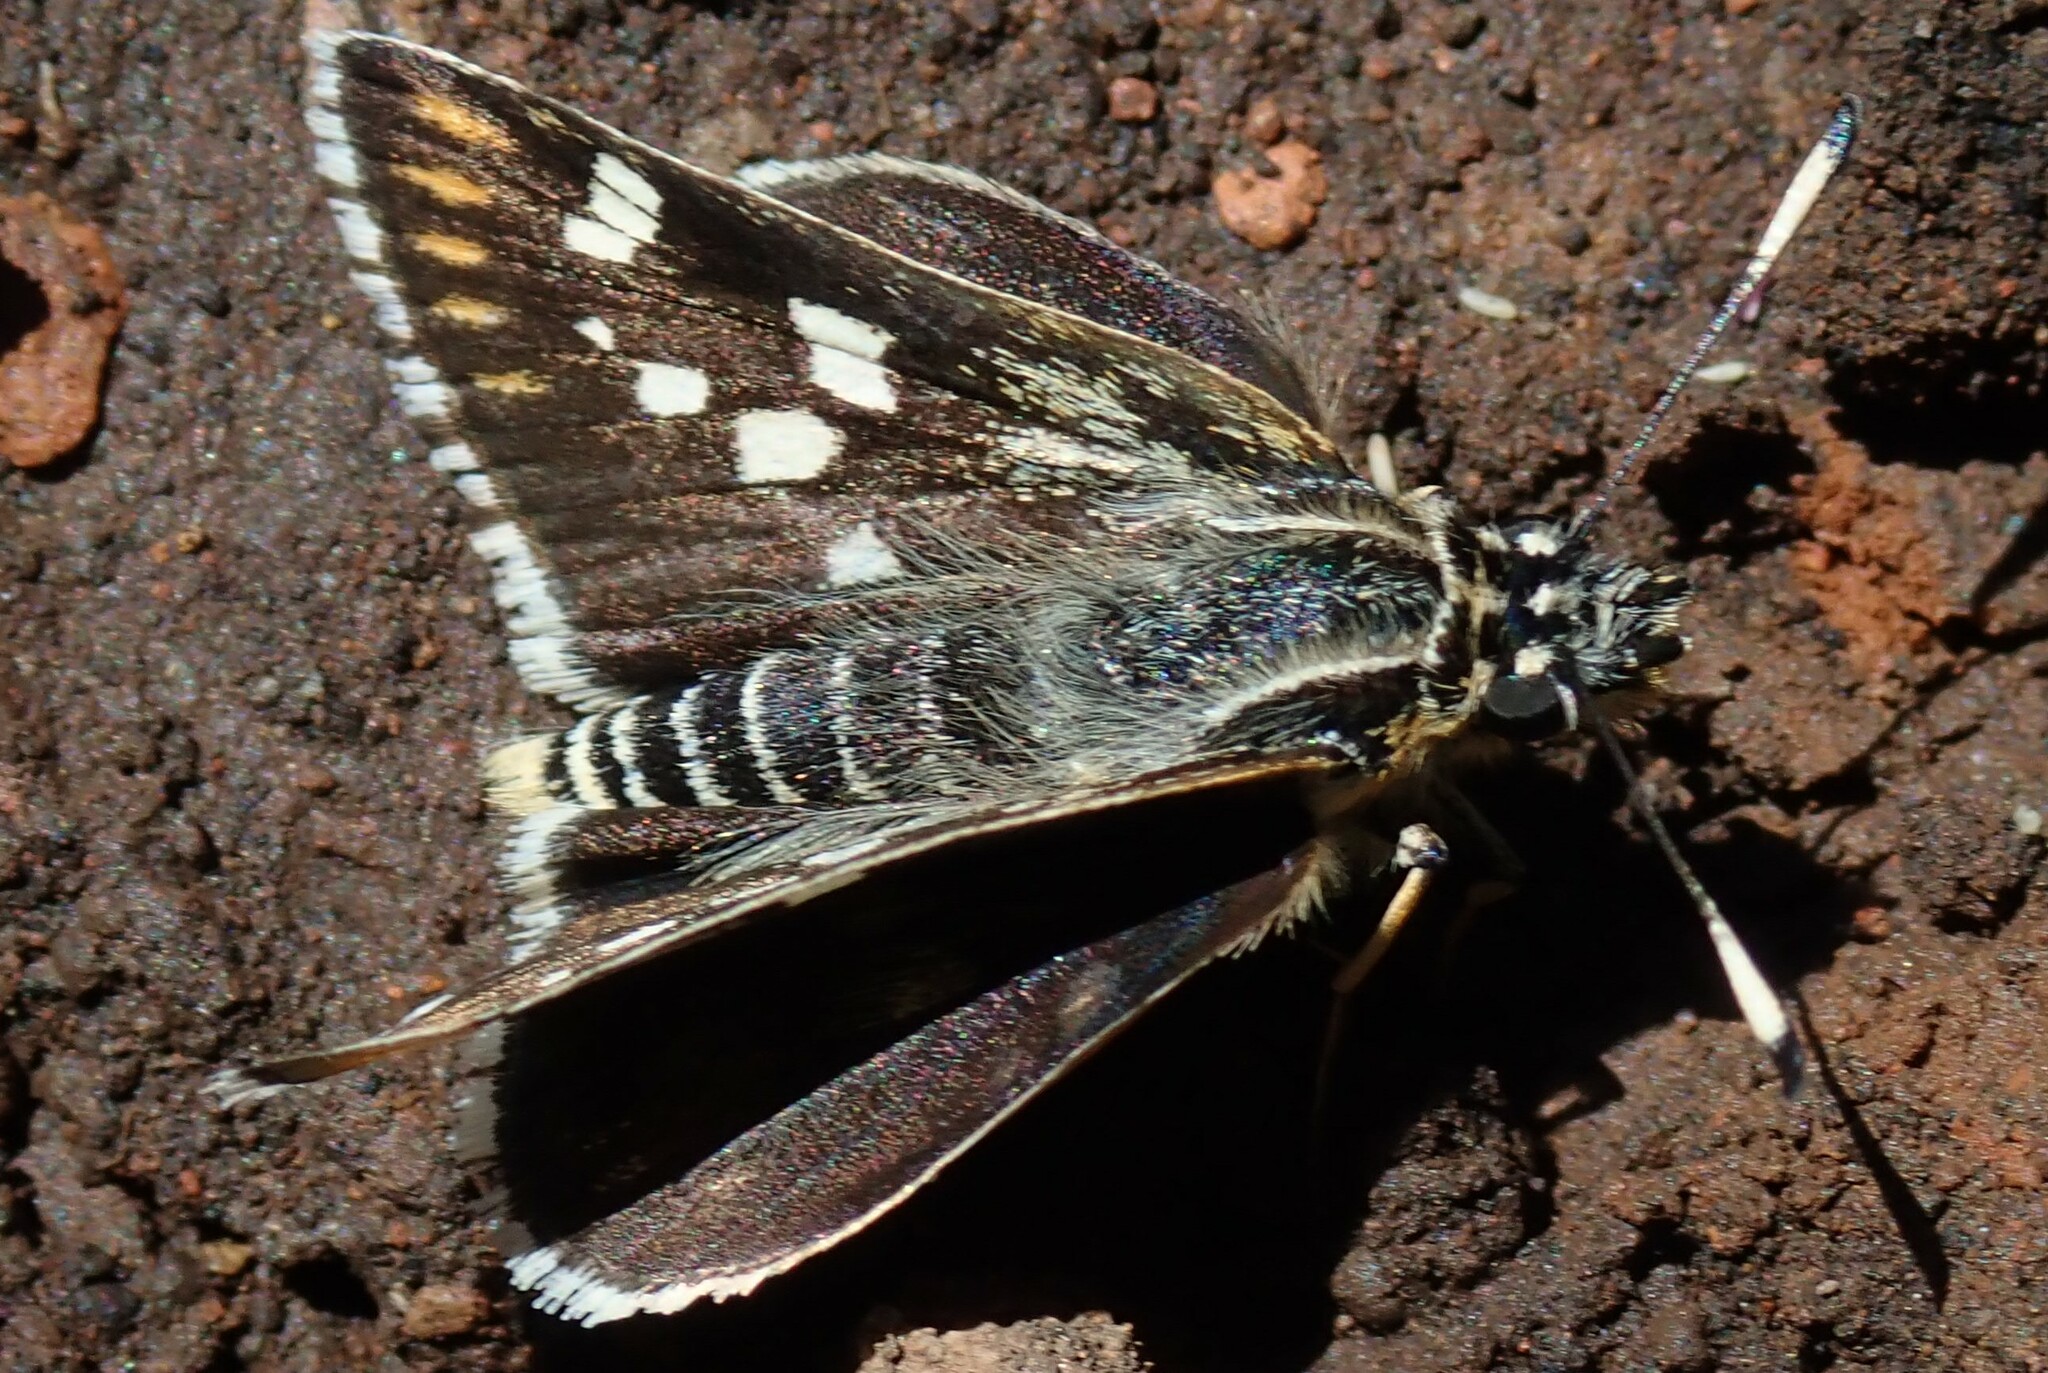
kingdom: Animalia
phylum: Arthropoda
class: Insecta
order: Lepidoptera
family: Hesperiidae
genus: Nervia
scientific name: Nervia
